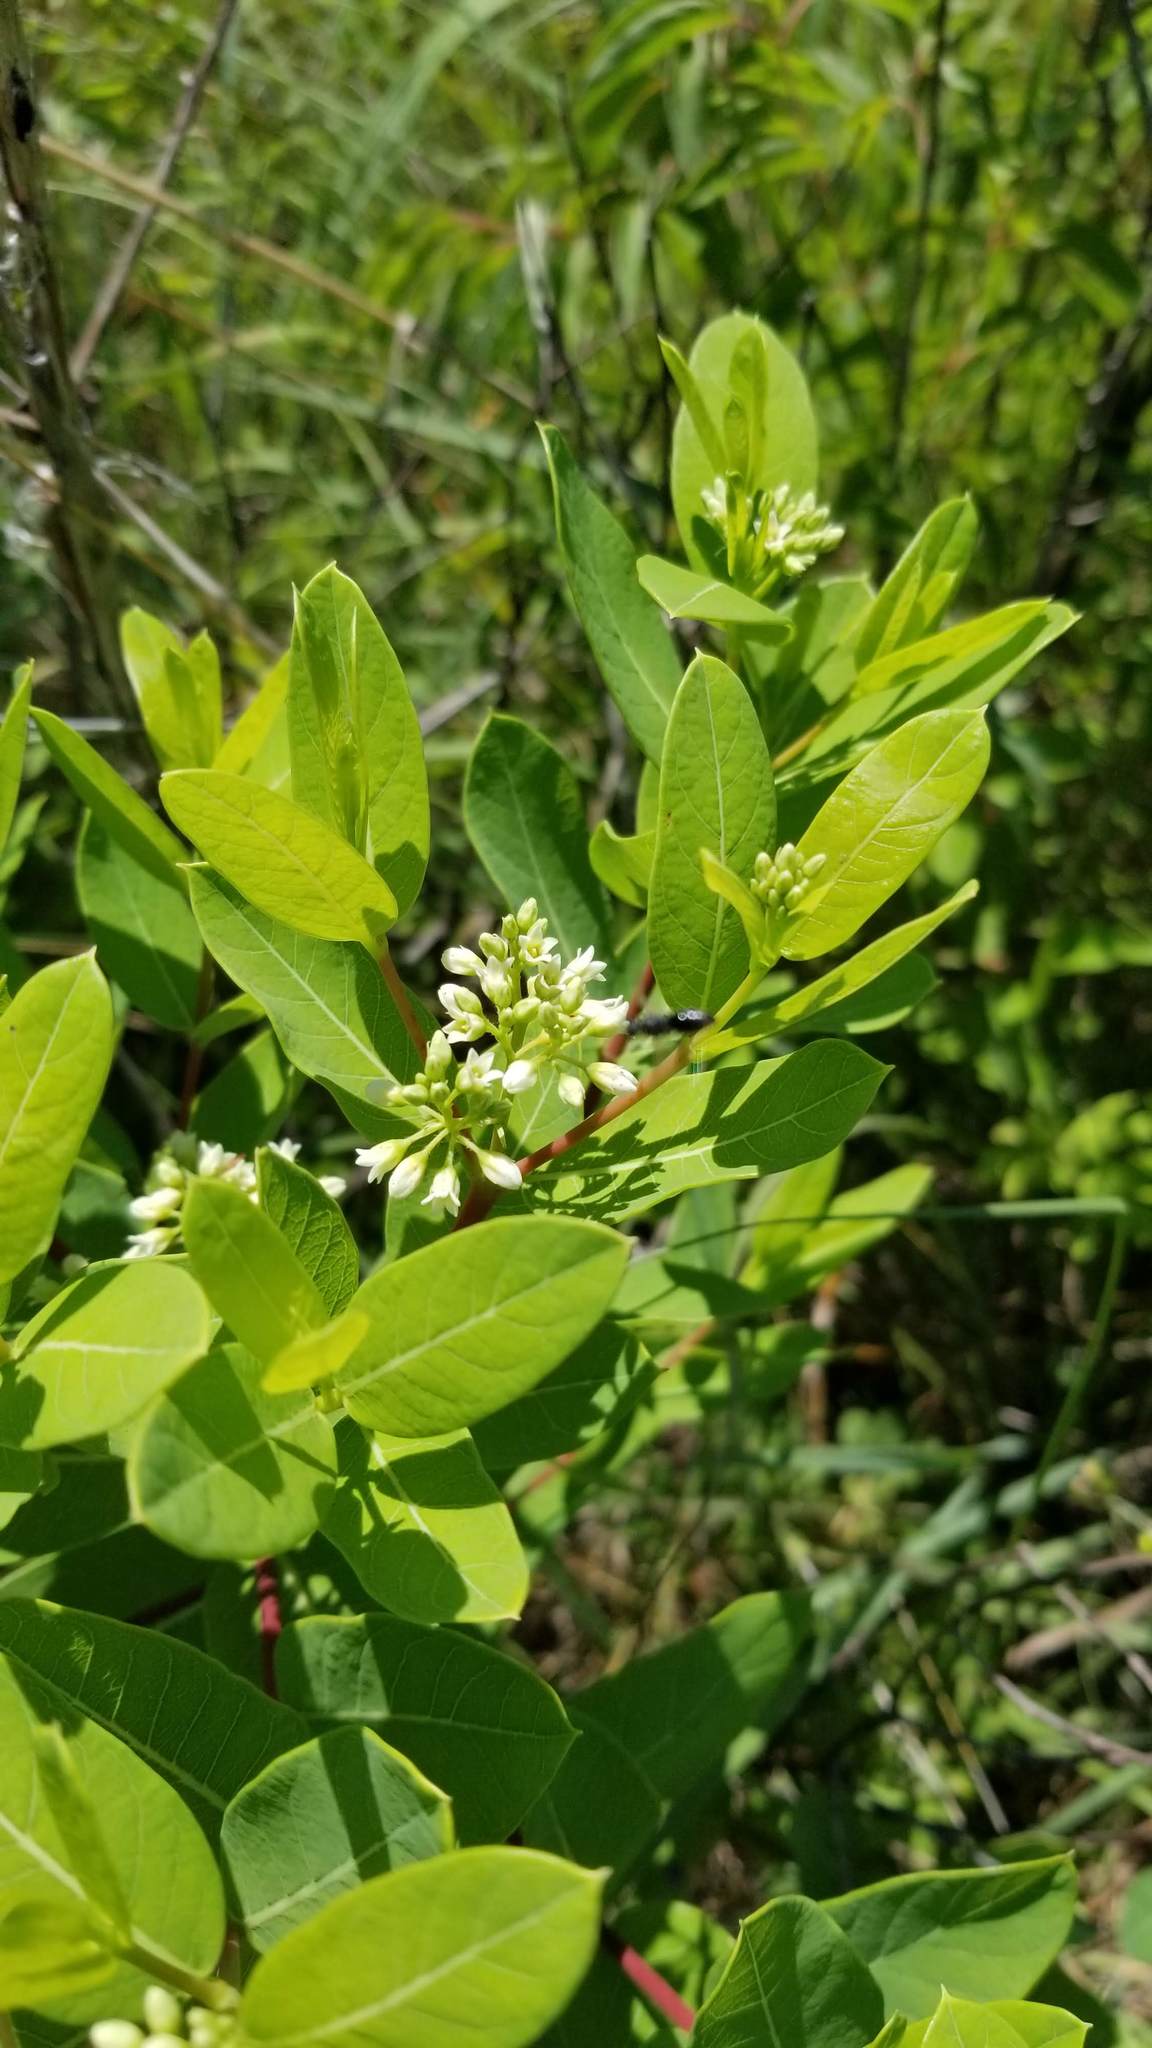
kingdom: Plantae
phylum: Tracheophyta
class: Magnoliopsida
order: Gentianales
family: Apocynaceae
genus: Apocynum
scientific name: Apocynum cannabinum
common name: Hemp dogbane
